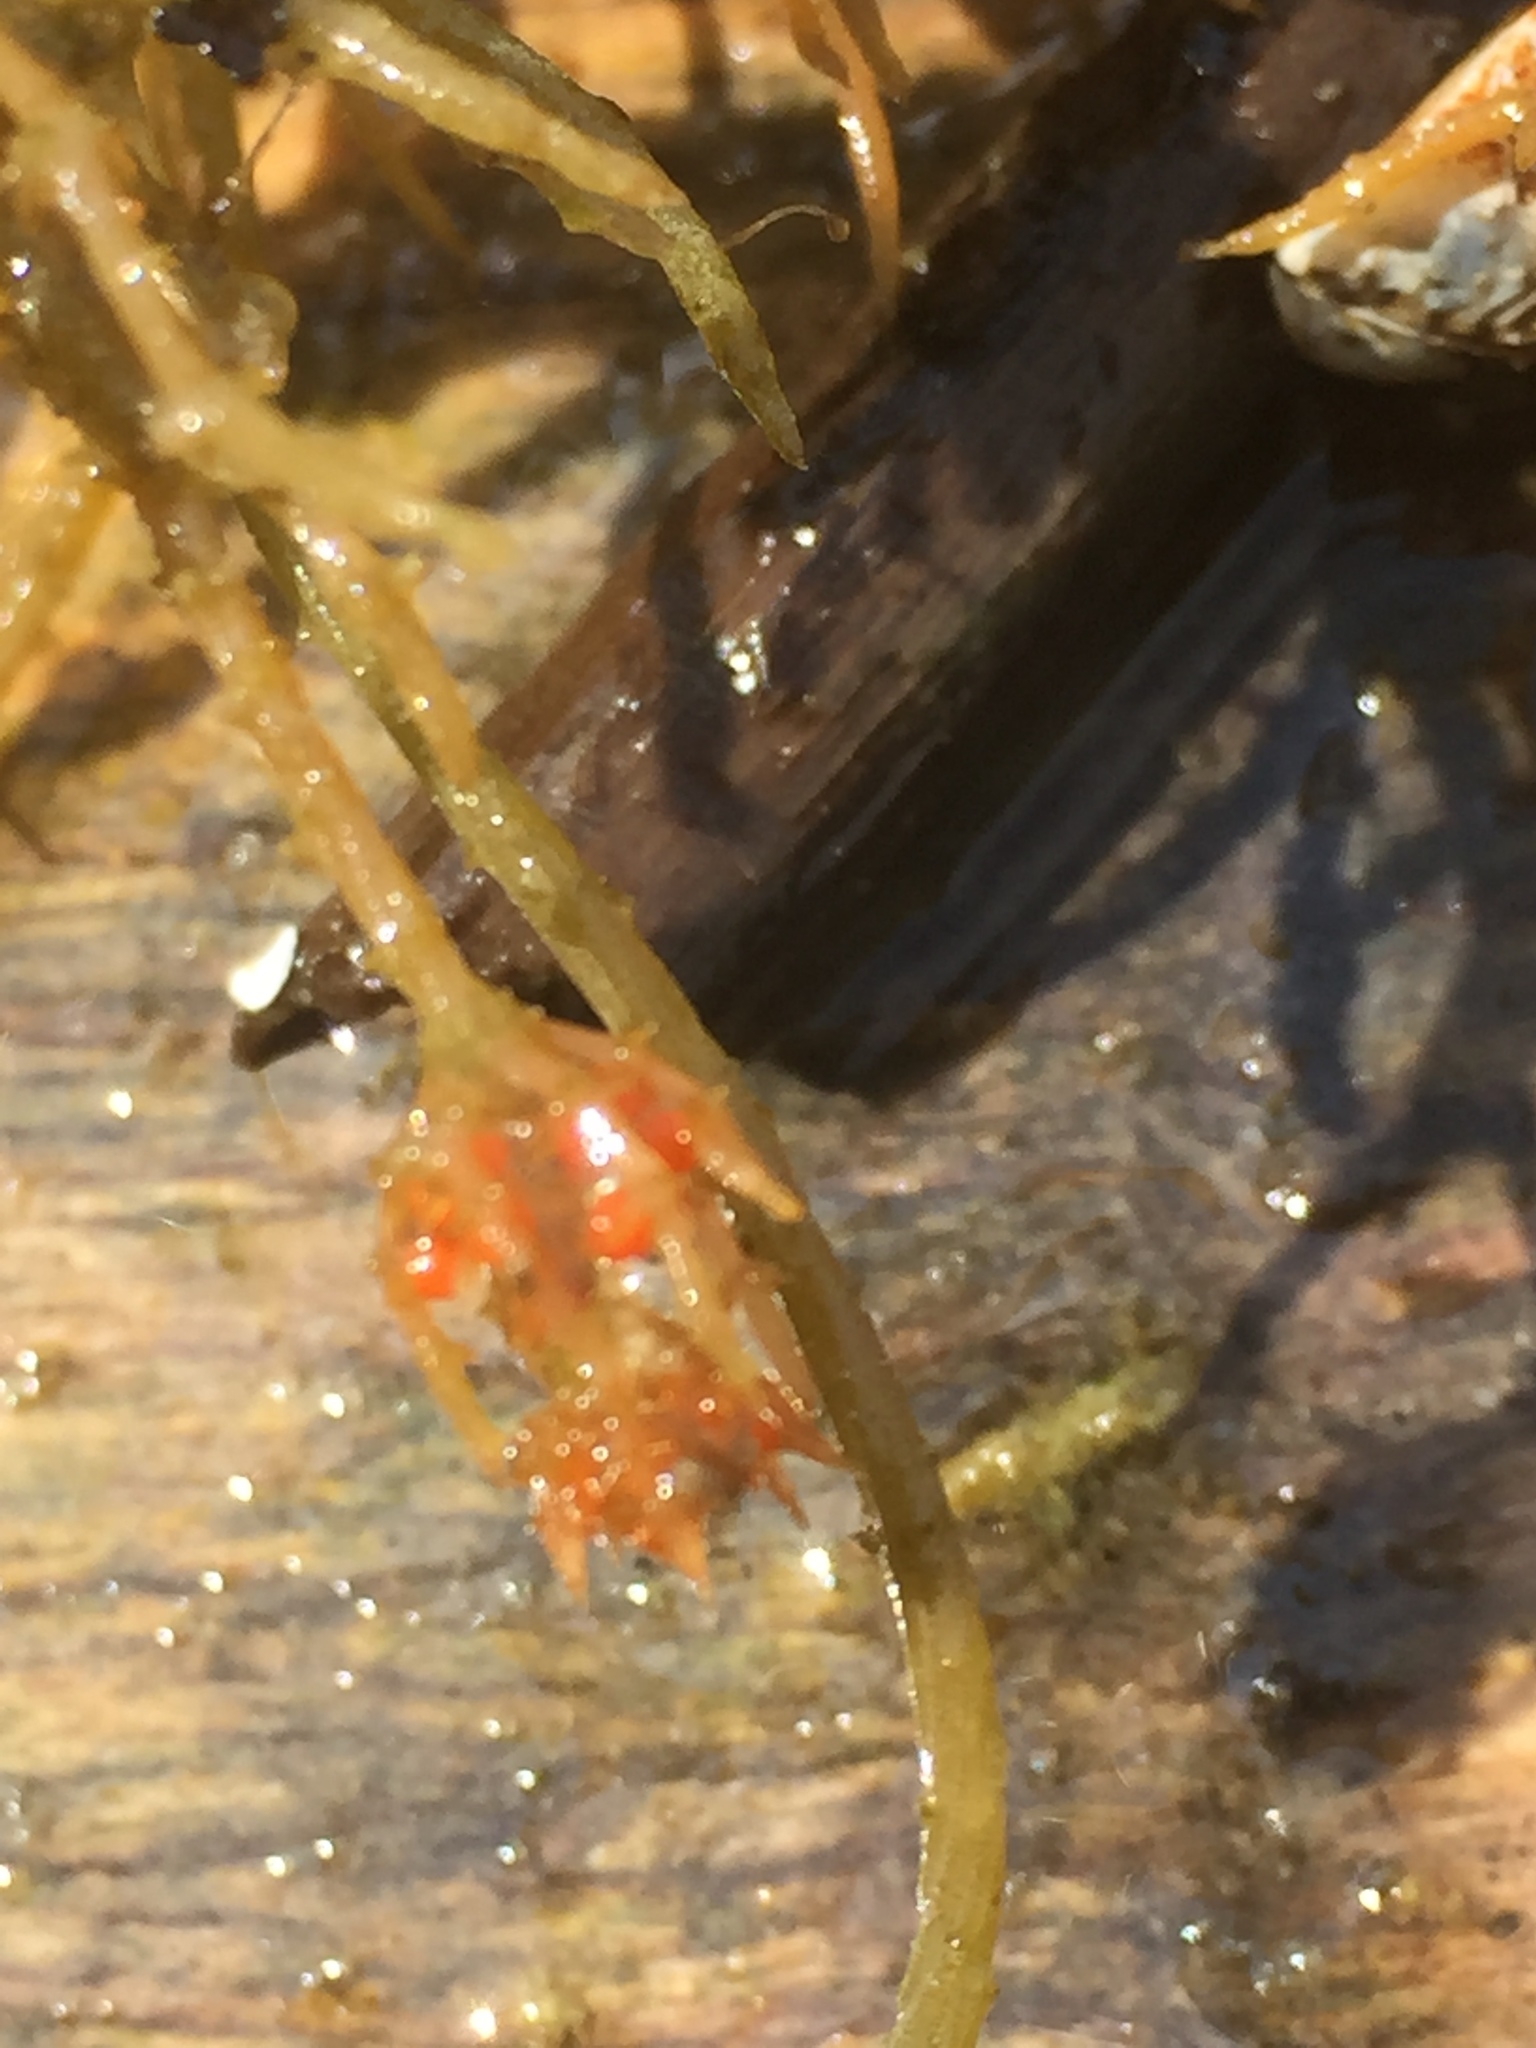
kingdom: Plantae
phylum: Charophyta
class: Charophyceae
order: Charales
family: Characeae
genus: Chara
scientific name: Chara tomentosa
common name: Coral stonewort
